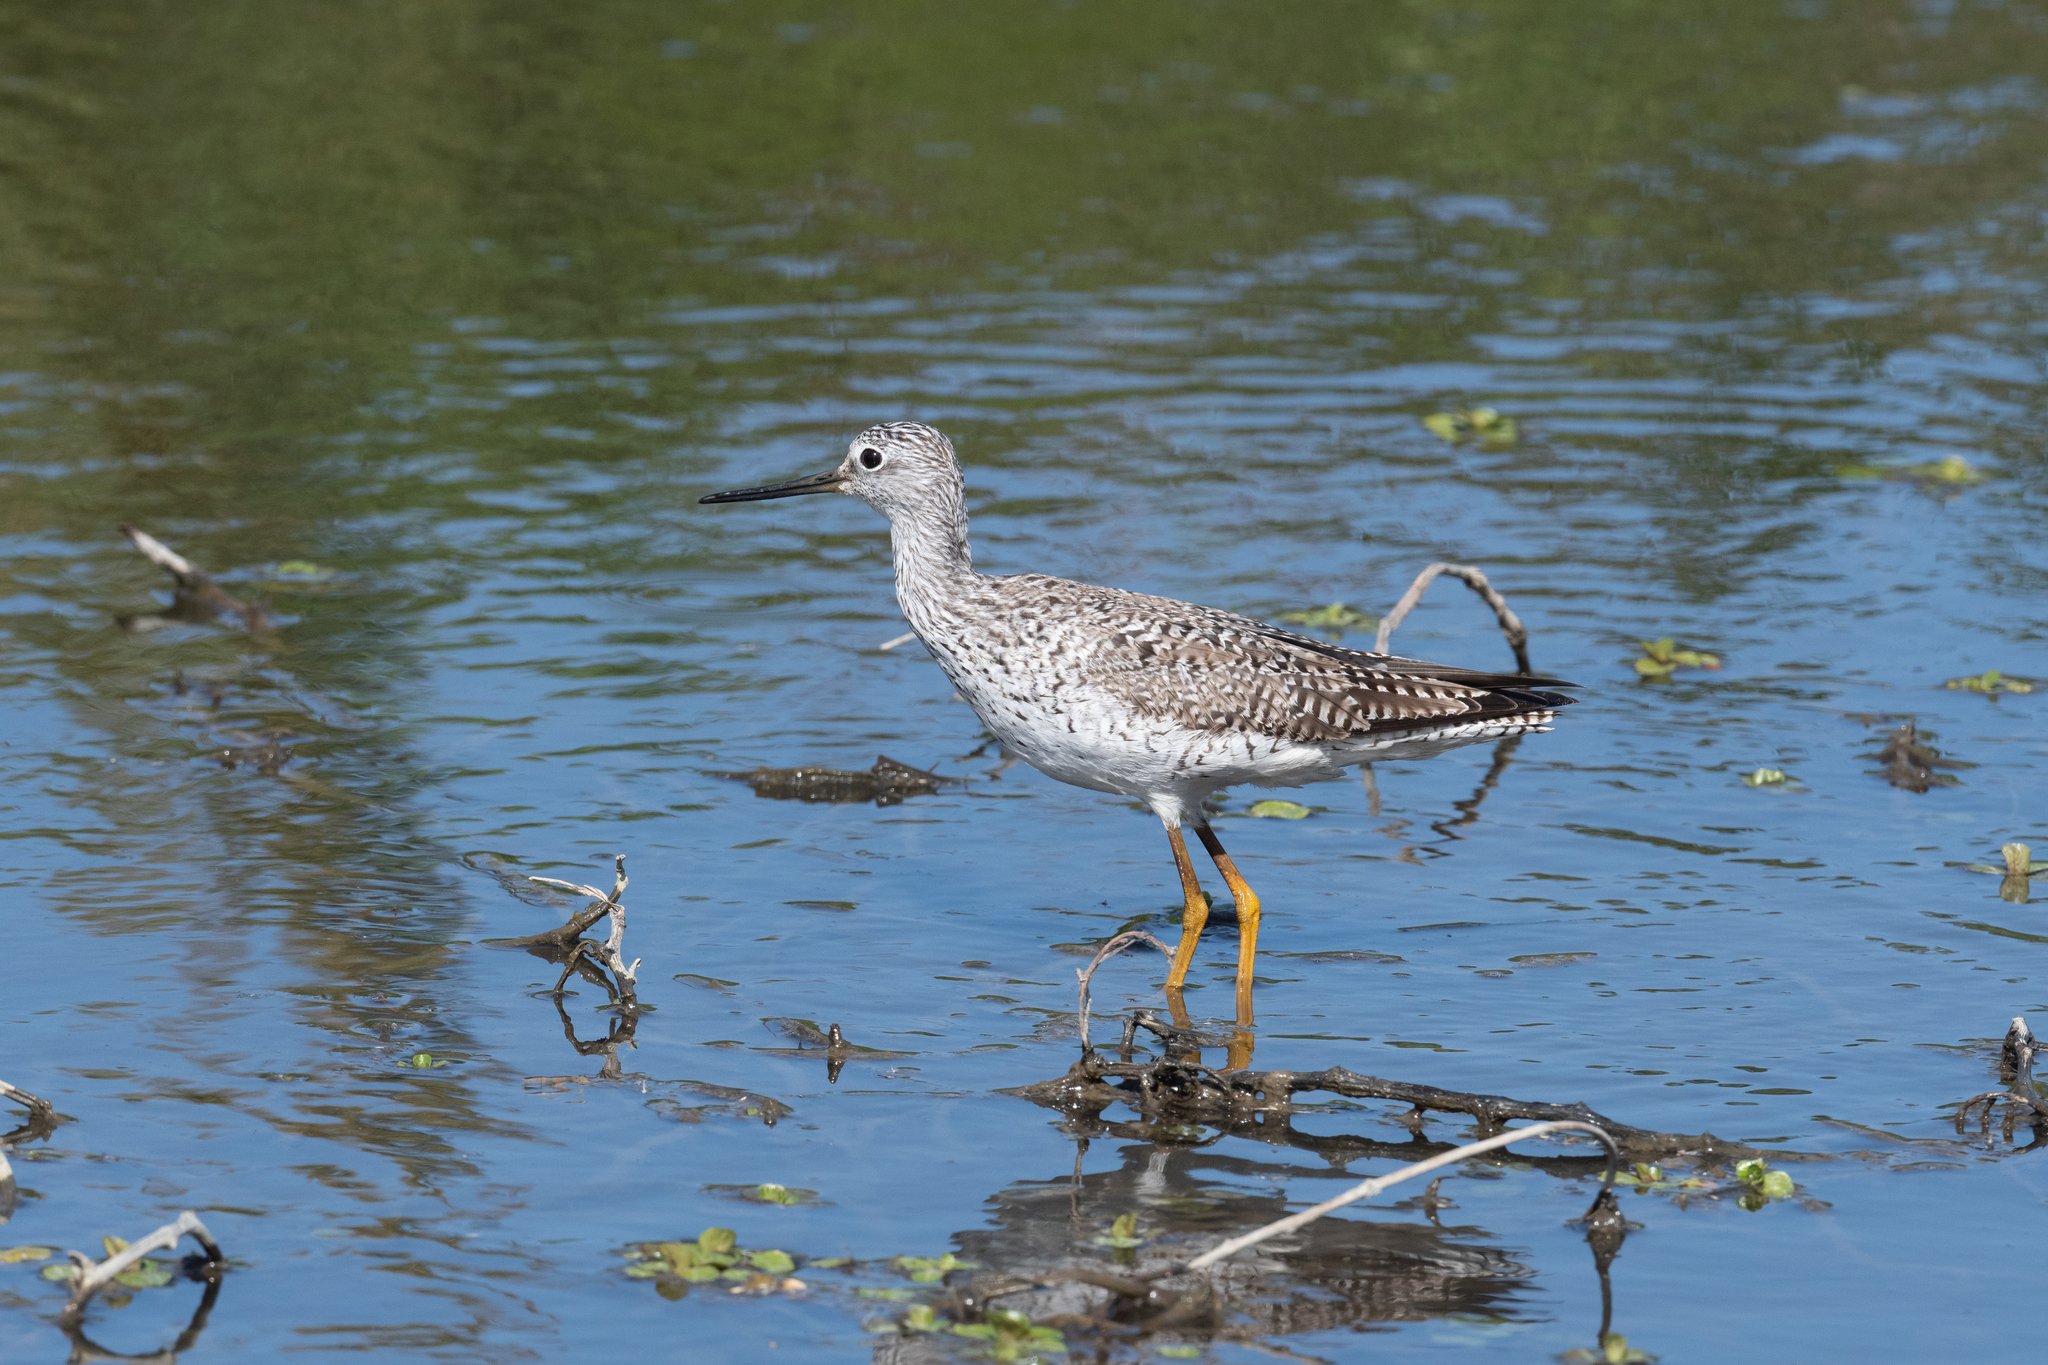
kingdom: Animalia
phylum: Chordata
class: Aves
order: Charadriiformes
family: Scolopacidae
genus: Tringa
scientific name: Tringa melanoleuca
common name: Greater yellowlegs
